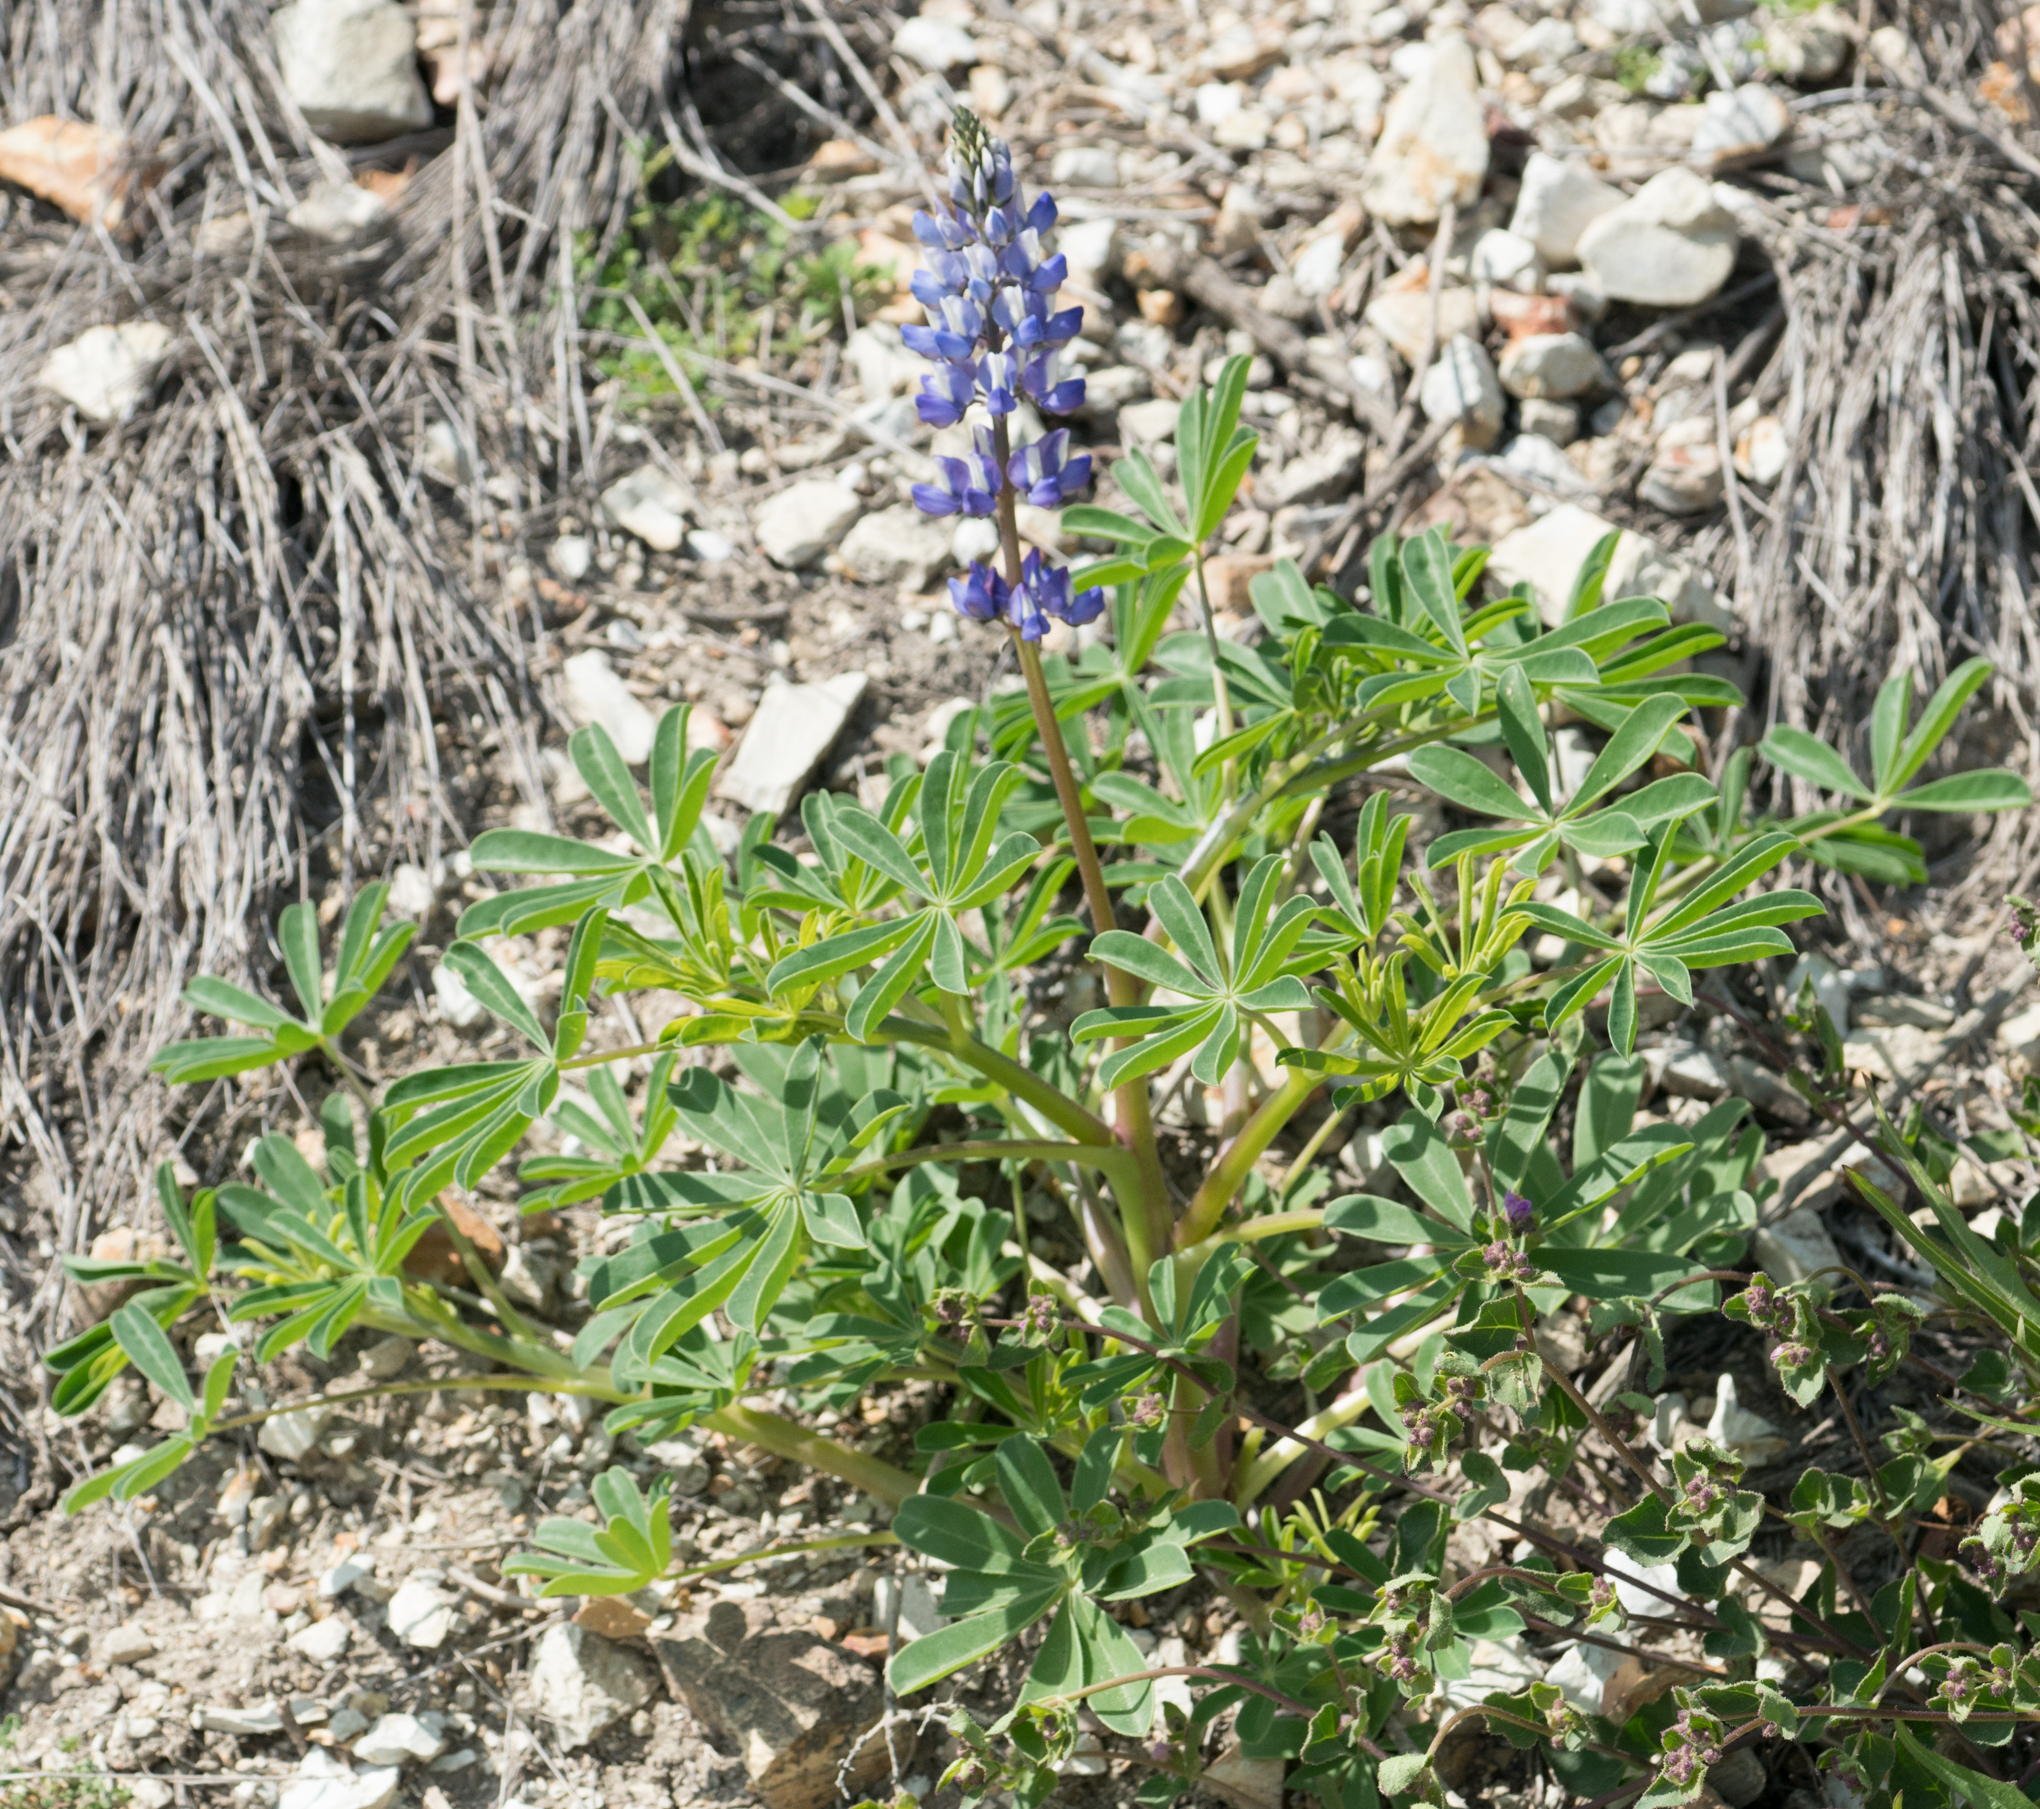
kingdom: Plantae
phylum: Tracheophyta
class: Magnoliopsida
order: Fabales
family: Fabaceae
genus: Lupinus
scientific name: Lupinus succulentus
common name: Arroyo lupine
